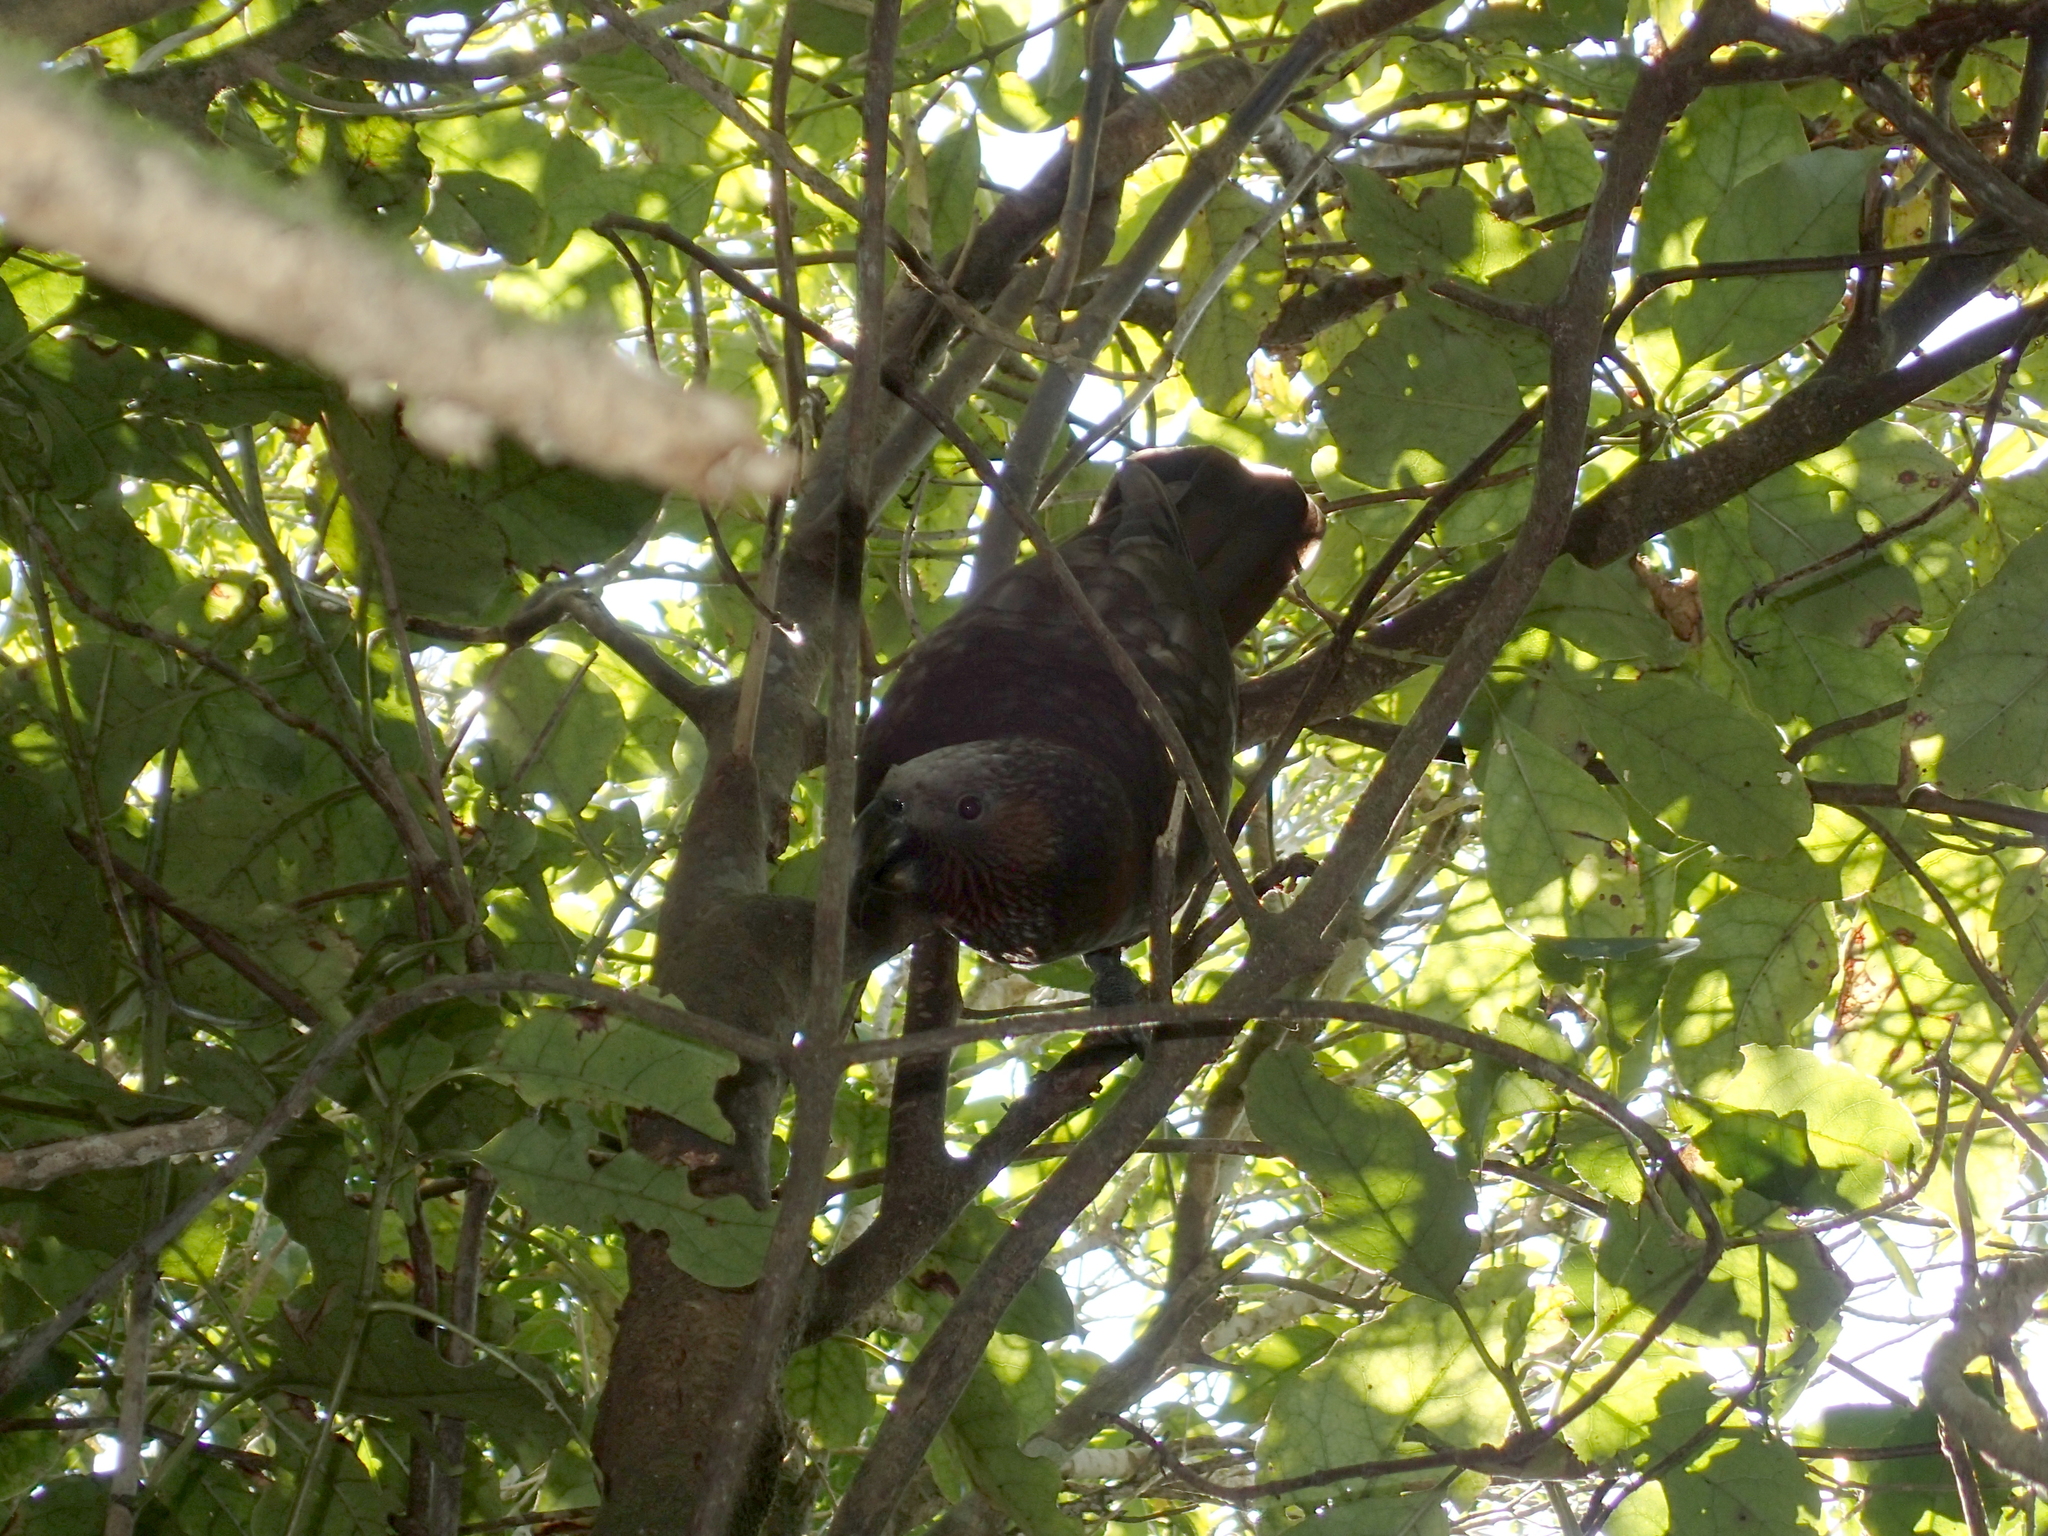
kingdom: Animalia
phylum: Chordata
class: Aves
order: Psittaciformes
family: Psittacidae
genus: Nestor
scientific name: Nestor meridionalis
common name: New zealand kaka
